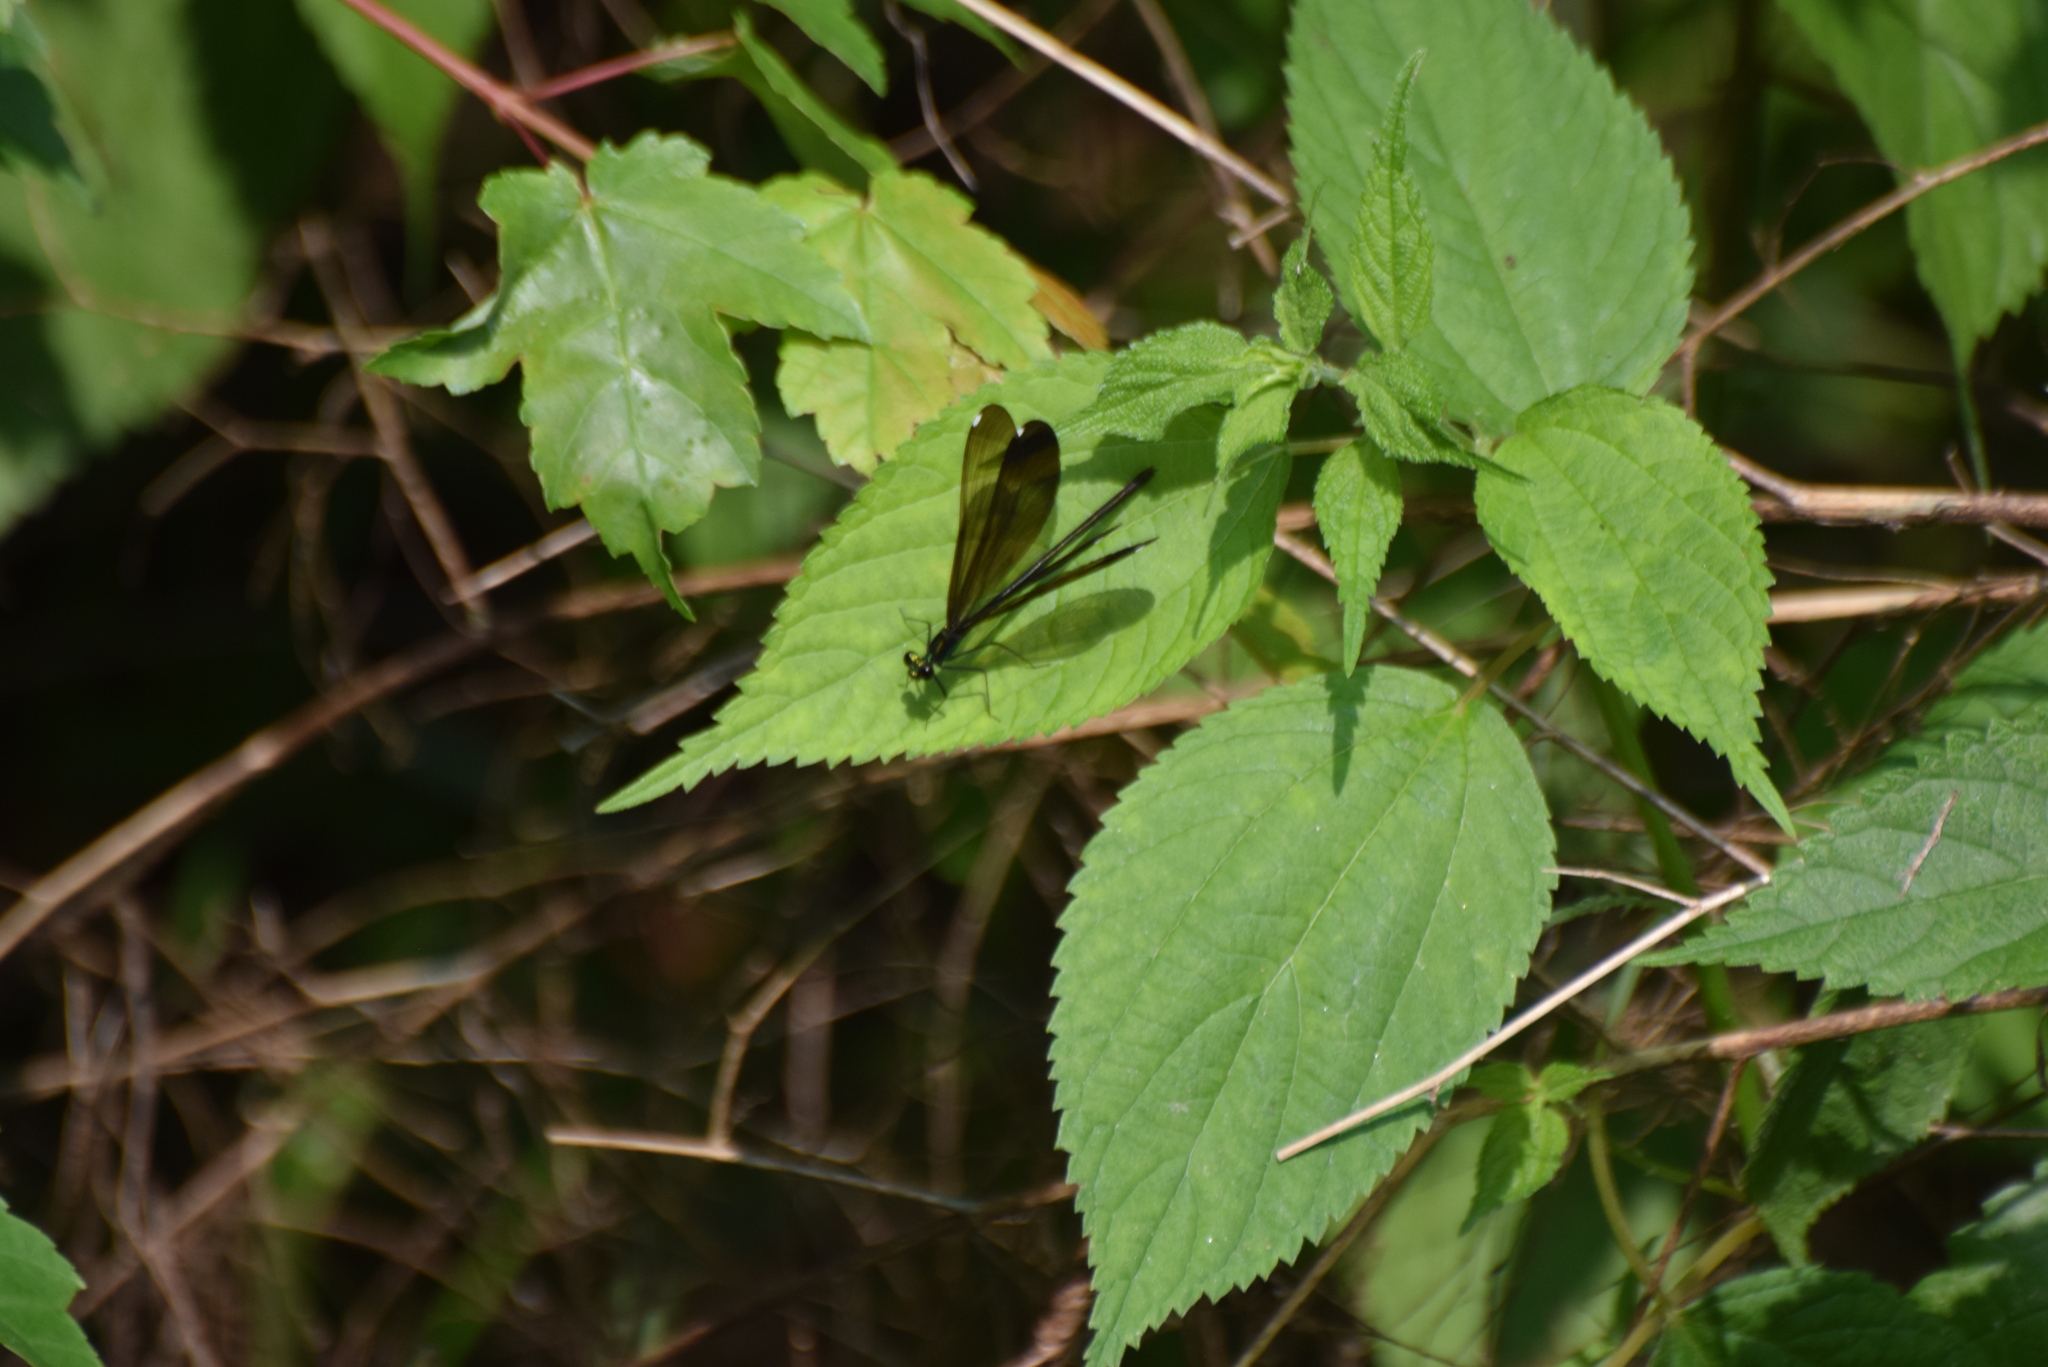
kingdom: Animalia
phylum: Arthropoda
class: Insecta
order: Odonata
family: Calopterygidae
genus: Calopteryx
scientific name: Calopteryx maculata
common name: Ebony jewelwing
